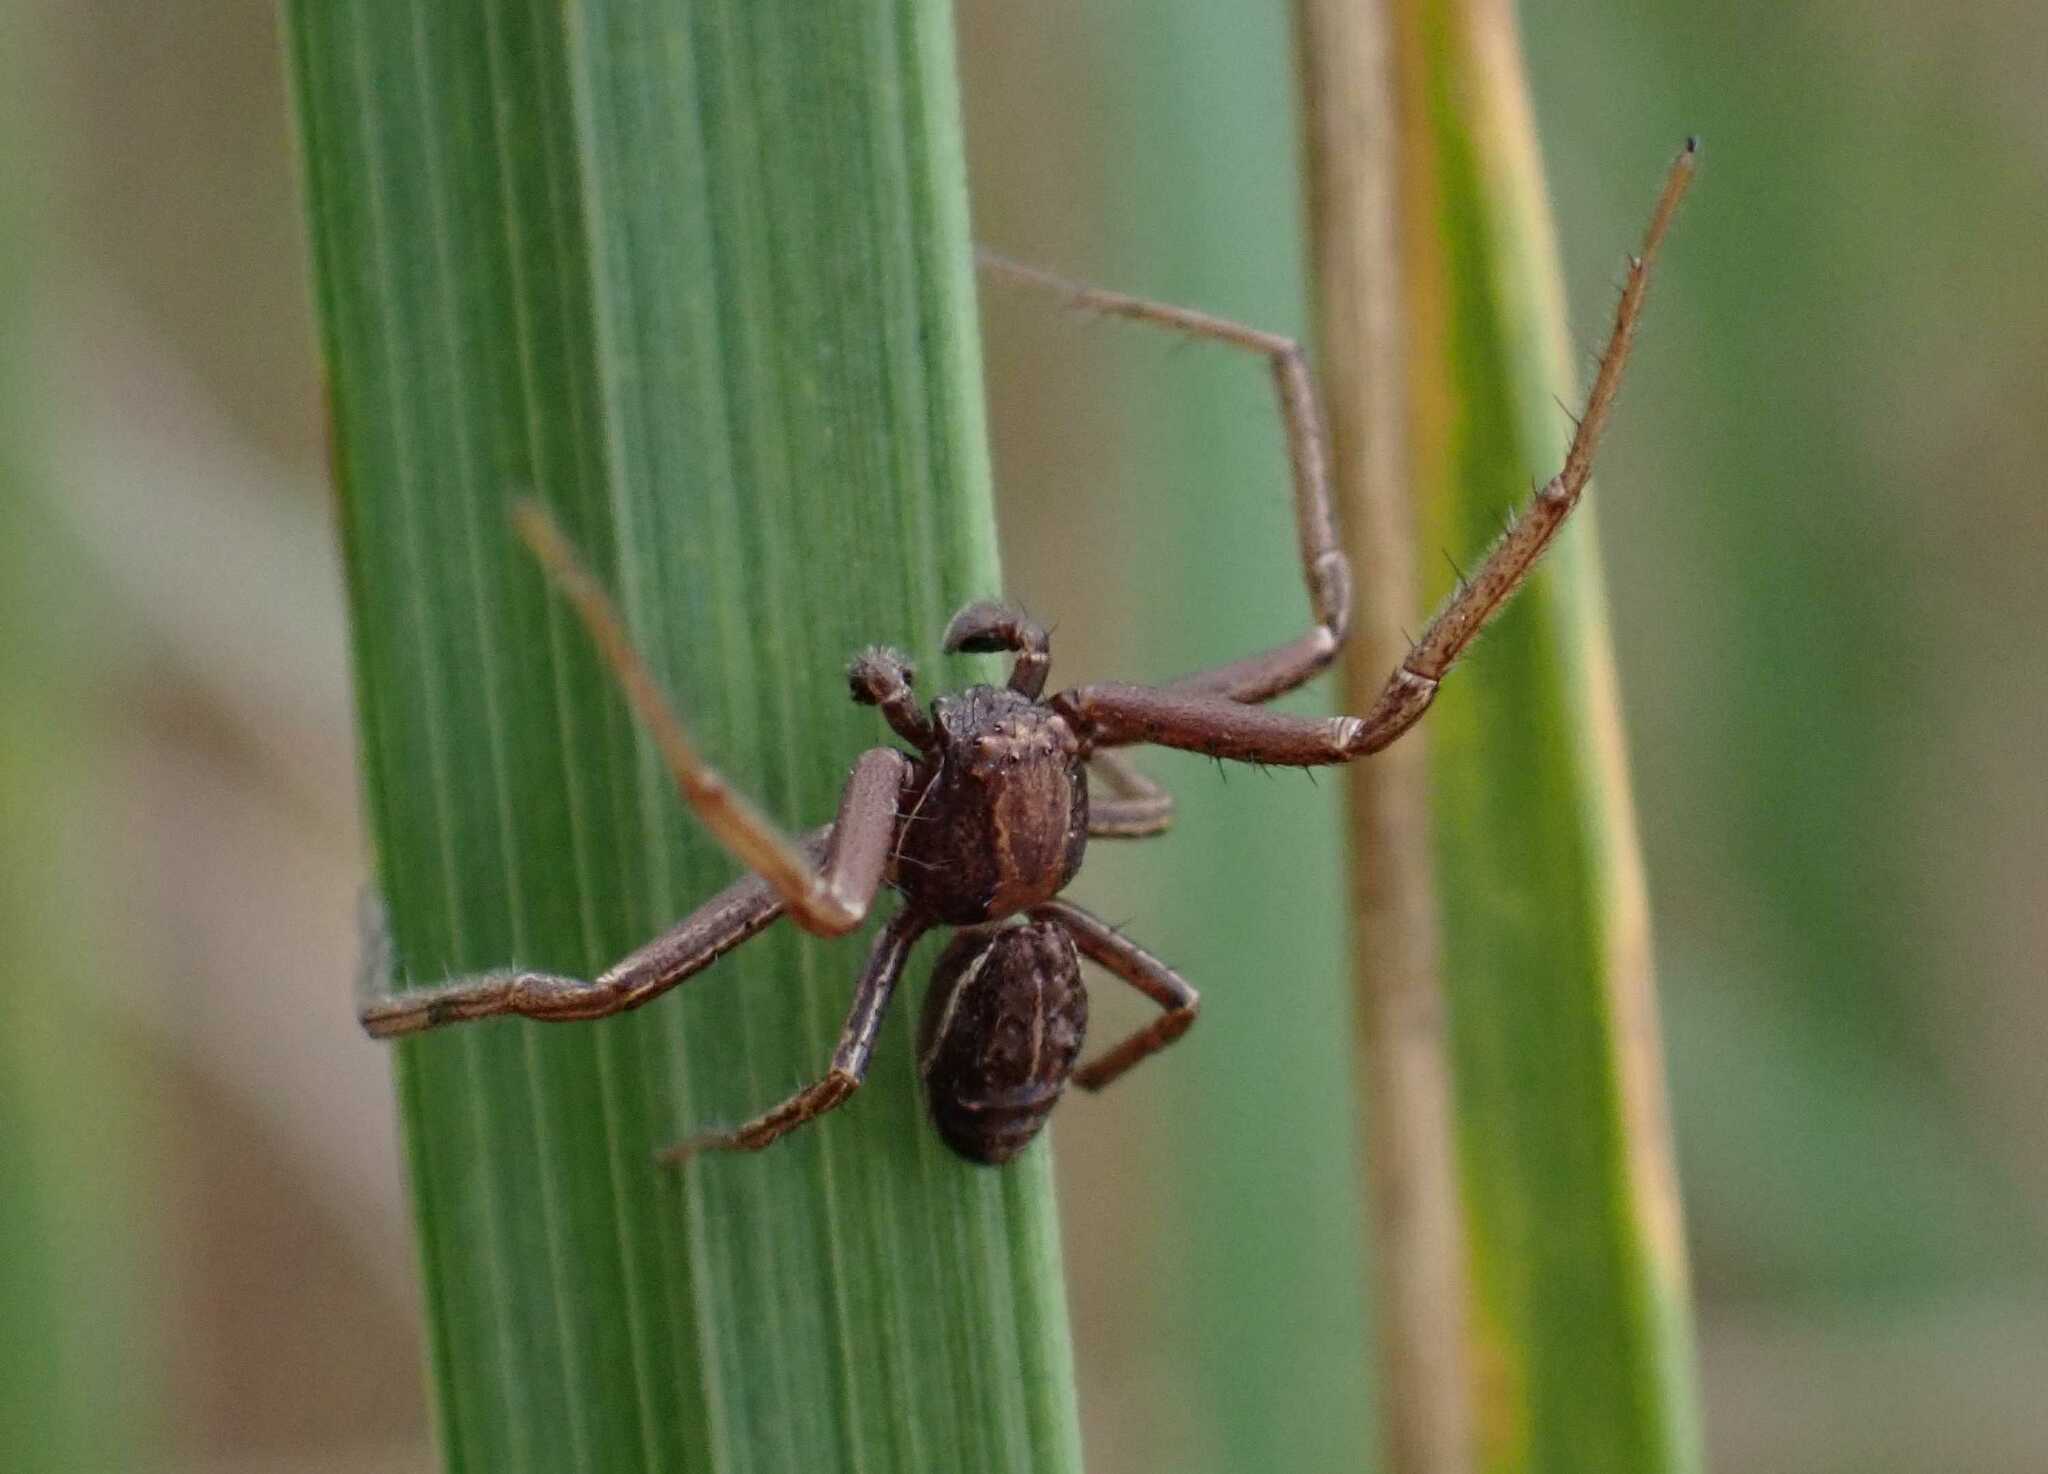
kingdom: Animalia
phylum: Arthropoda
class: Arachnida
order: Araneae
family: Thomisidae
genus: Spiracme
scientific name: Spiracme striatipes
